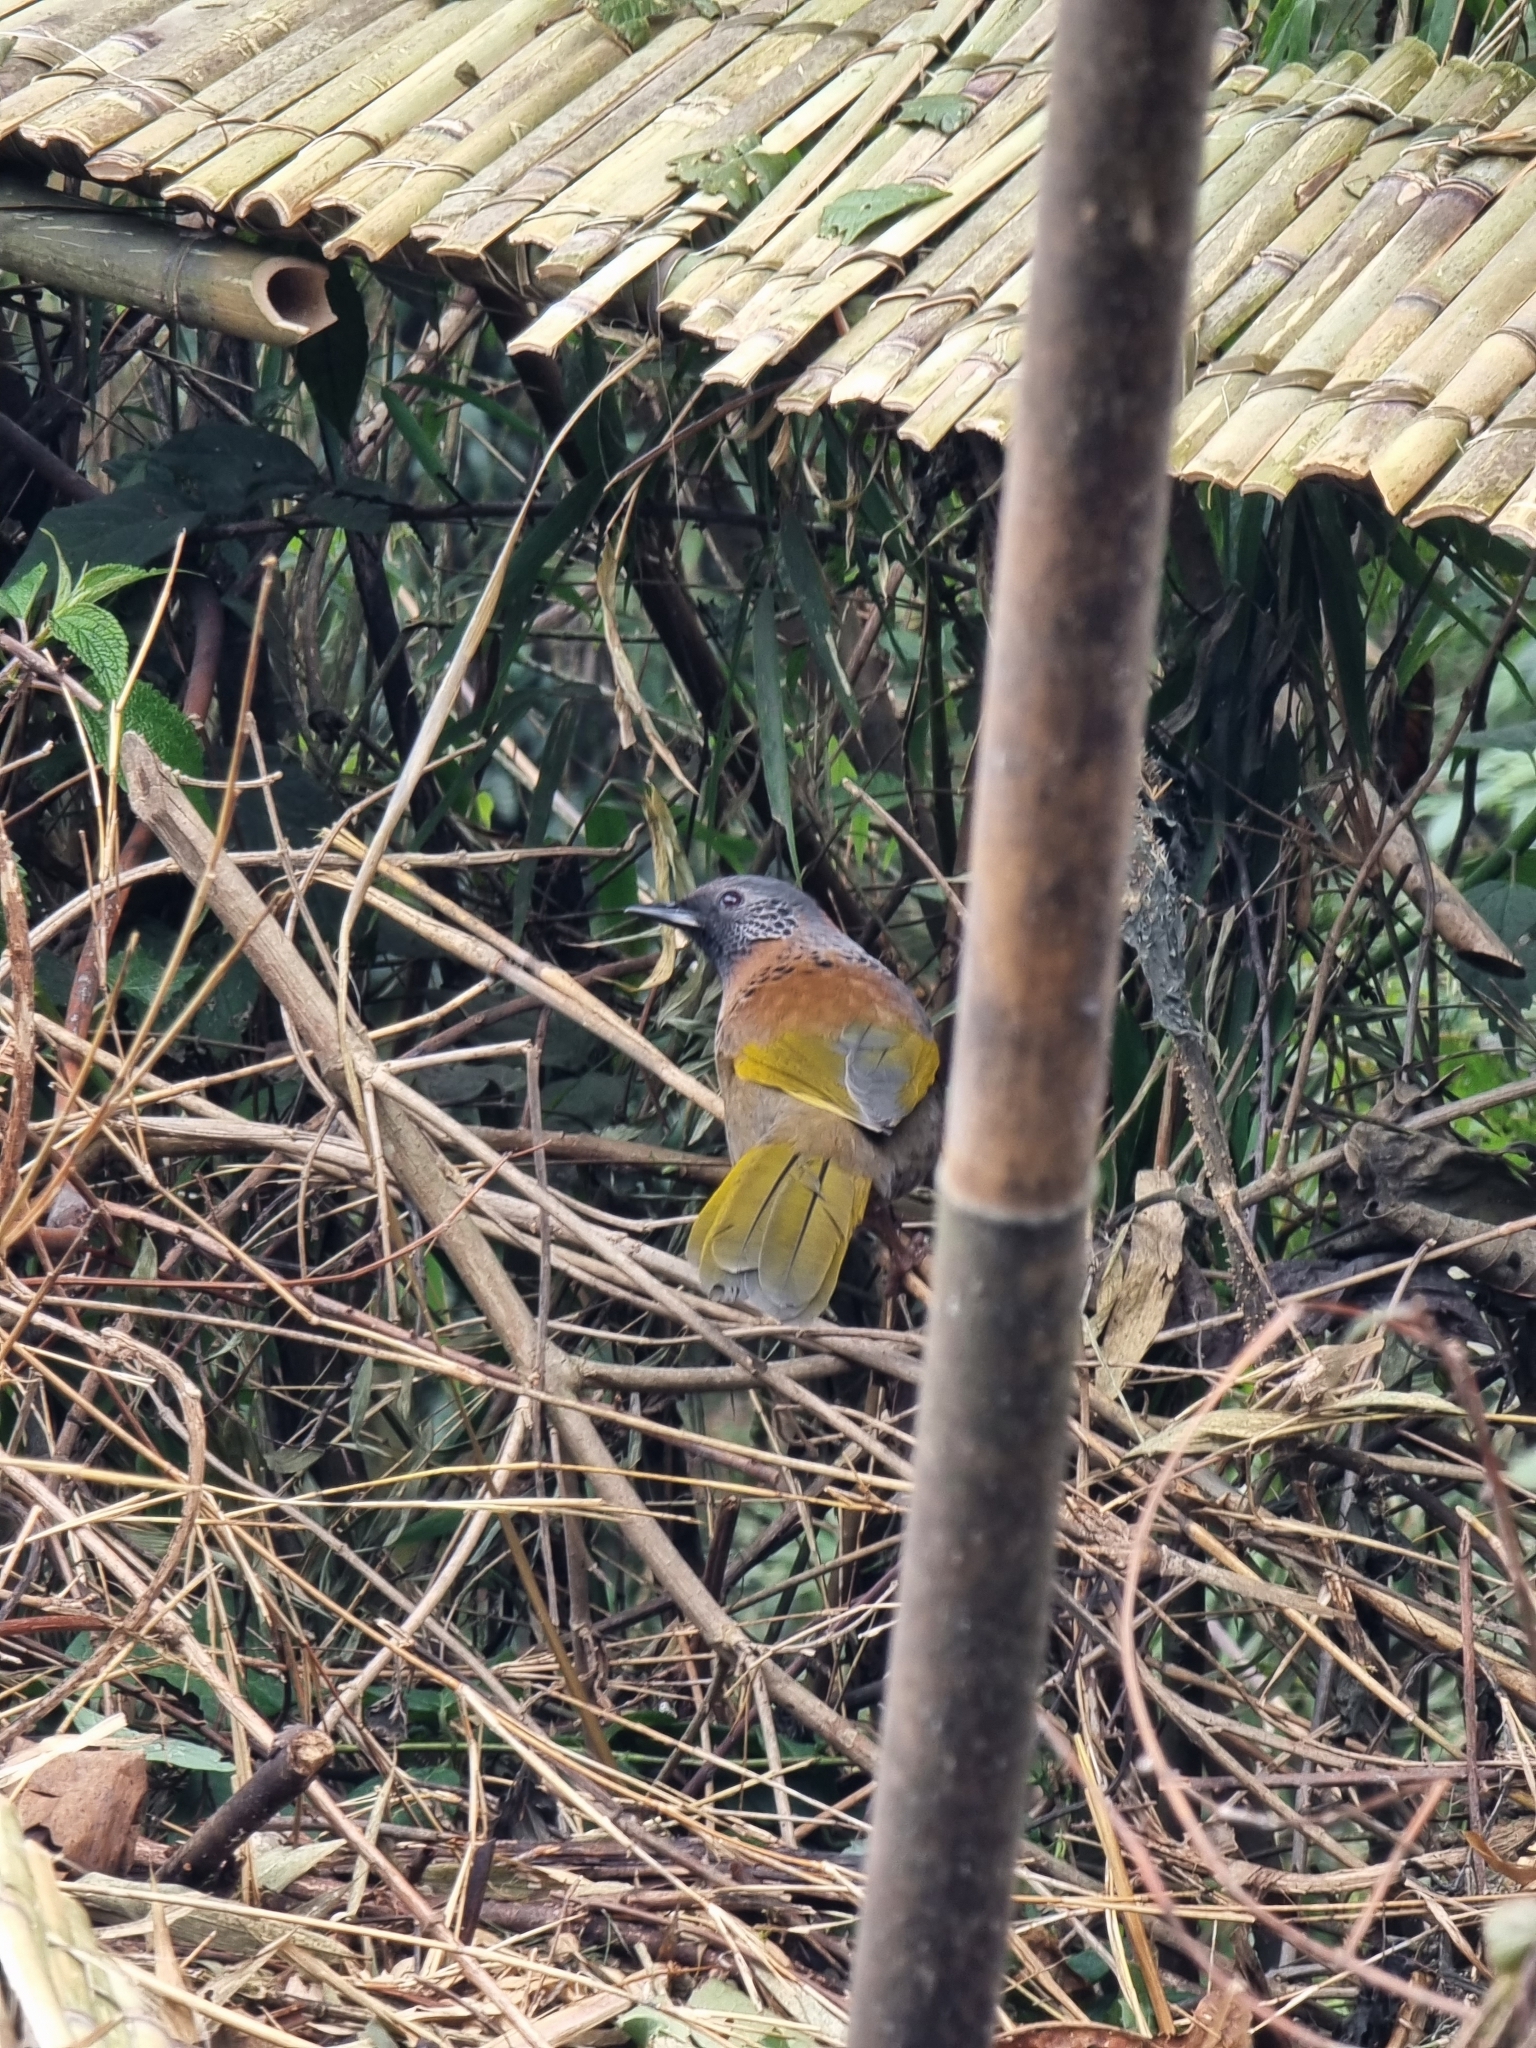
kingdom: Animalia
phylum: Chordata
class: Aves
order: Passeriformes
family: Leiothrichidae
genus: Trochalopteron
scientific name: Trochalopteron erythrocephalum
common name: Chestnut-crowned laughingthrush
